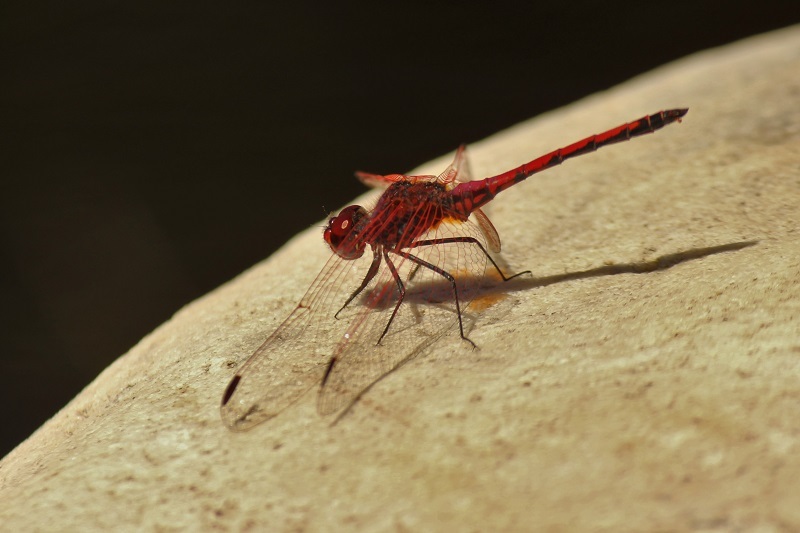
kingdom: Animalia
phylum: Arthropoda
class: Insecta
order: Odonata
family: Libellulidae
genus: Trithemis
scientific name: Trithemis arteriosa
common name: Red-veined dropwing
